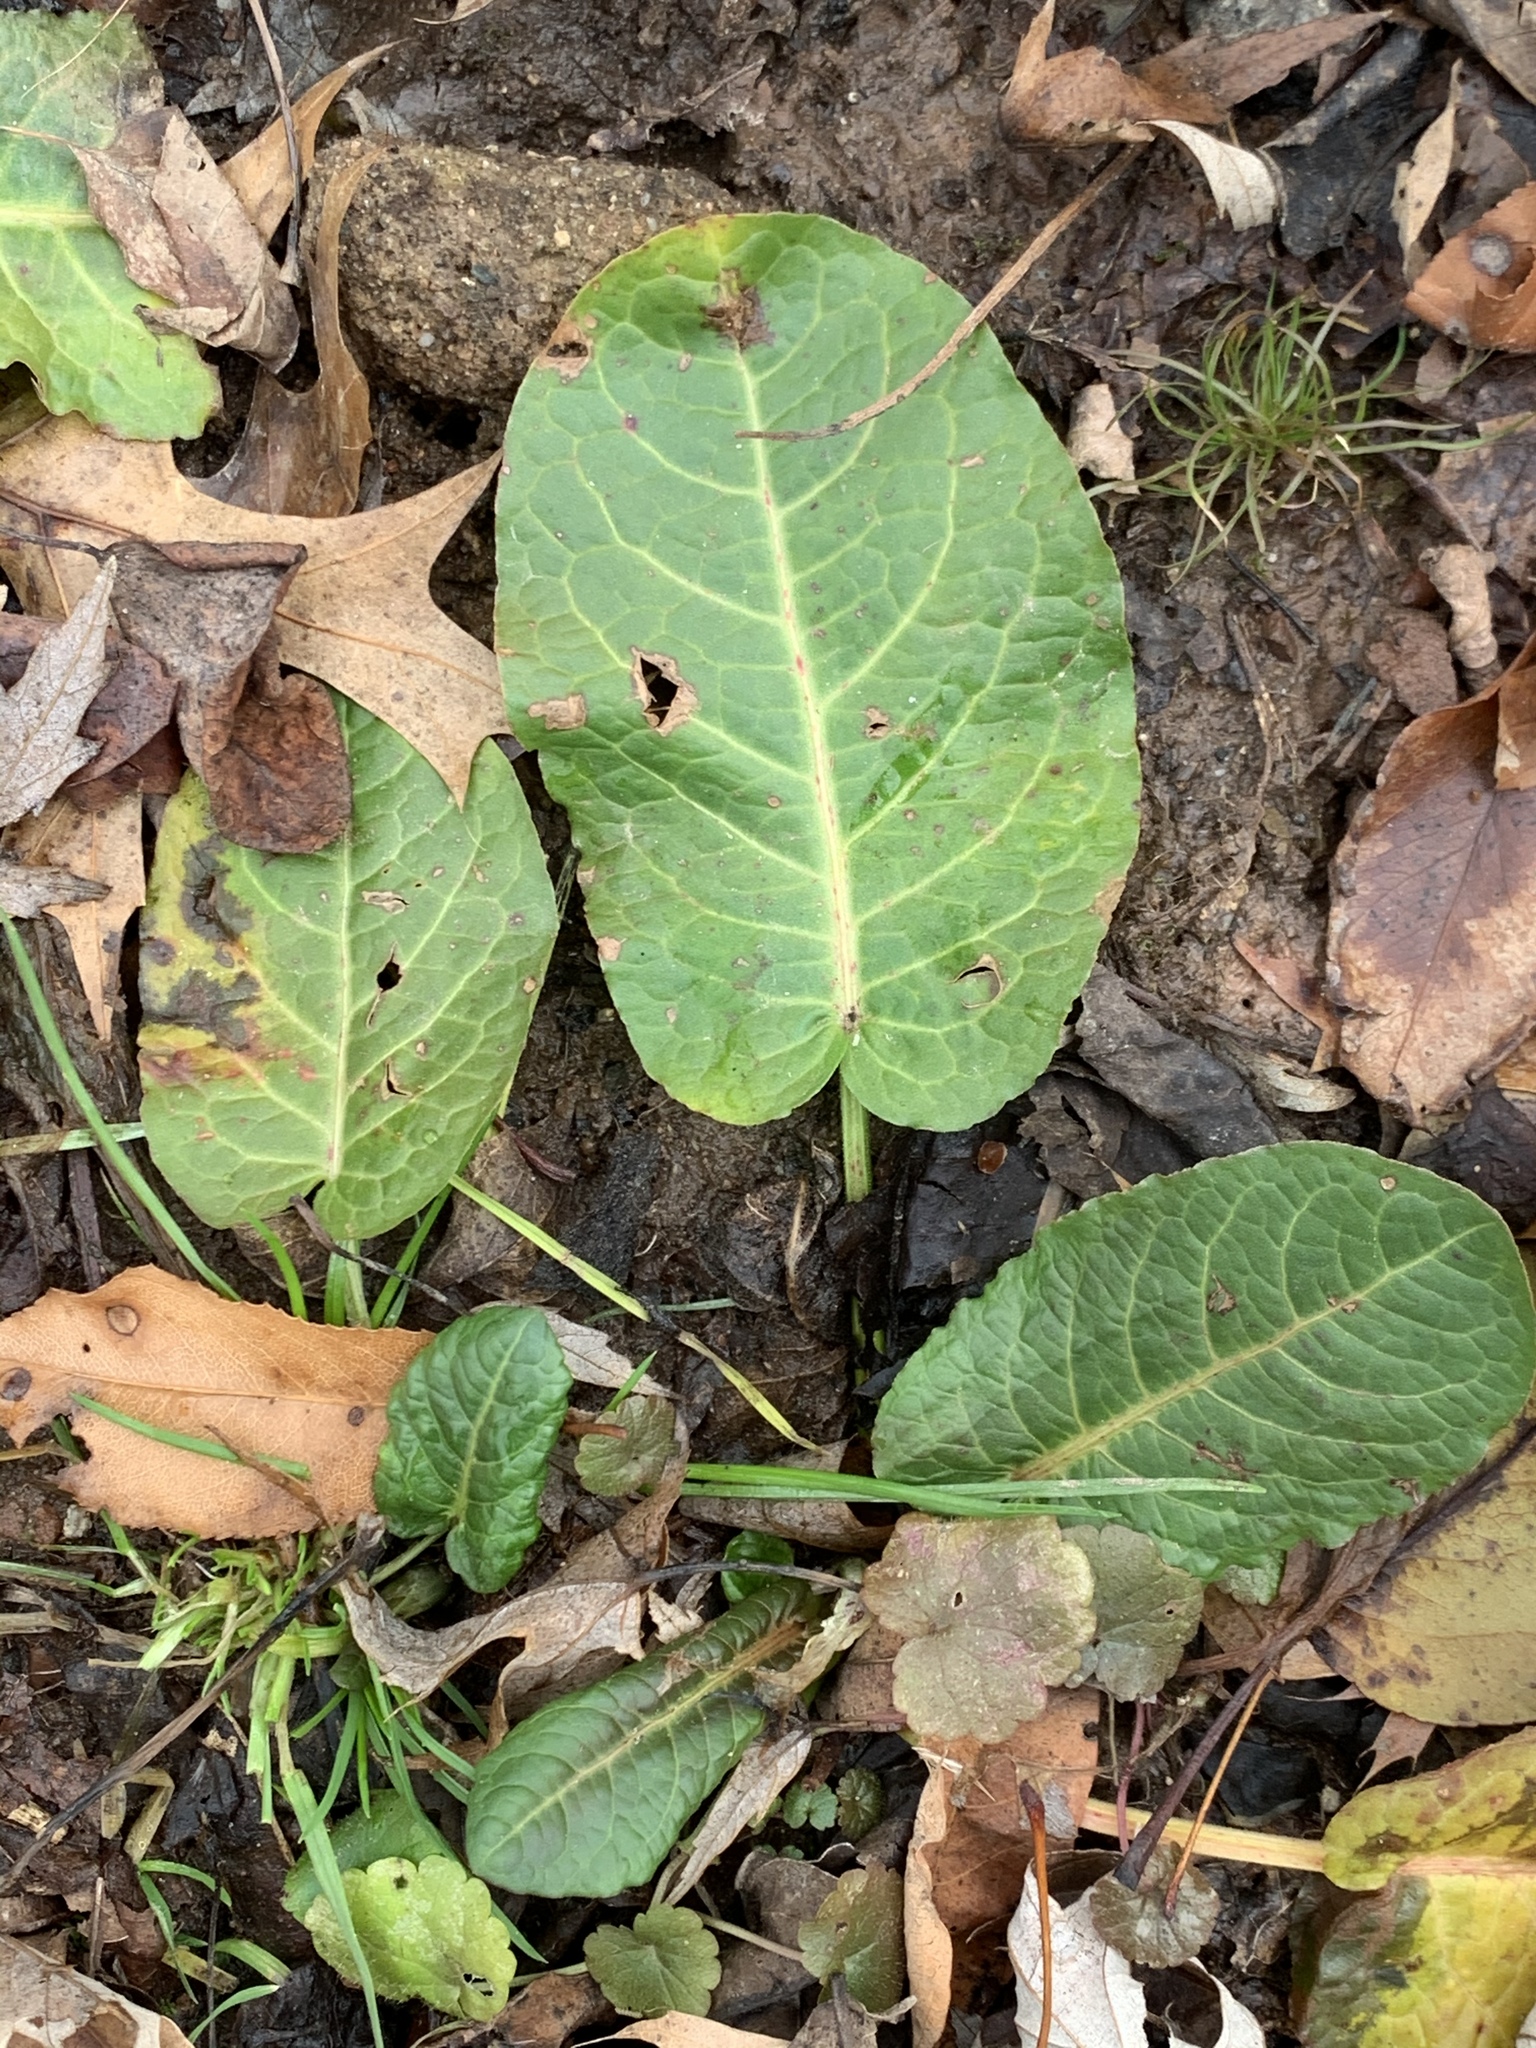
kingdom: Plantae
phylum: Tracheophyta
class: Magnoliopsida
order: Caryophyllales
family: Polygonaceae
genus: Rumex
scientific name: Rumex obtusifolius
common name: Bitter dock
